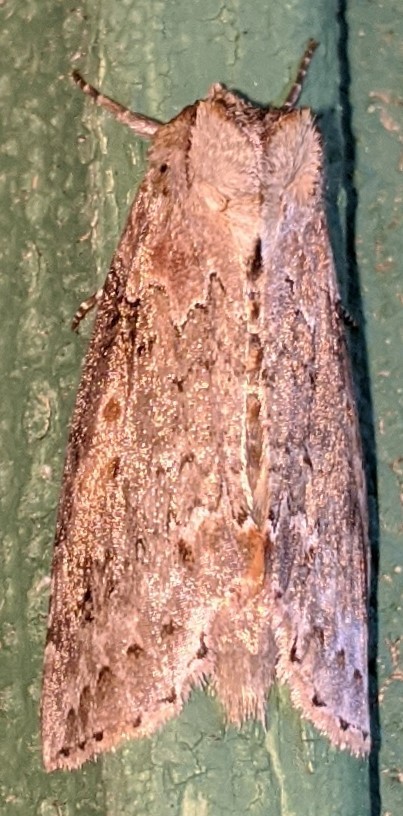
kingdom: Animalia
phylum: Arthropoda
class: Insecta
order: Lepidoptera
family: Drepanidae
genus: Pseudothyatira
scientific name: Pseudothyatira cymatophoroides
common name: Tufted thyatirid moth
